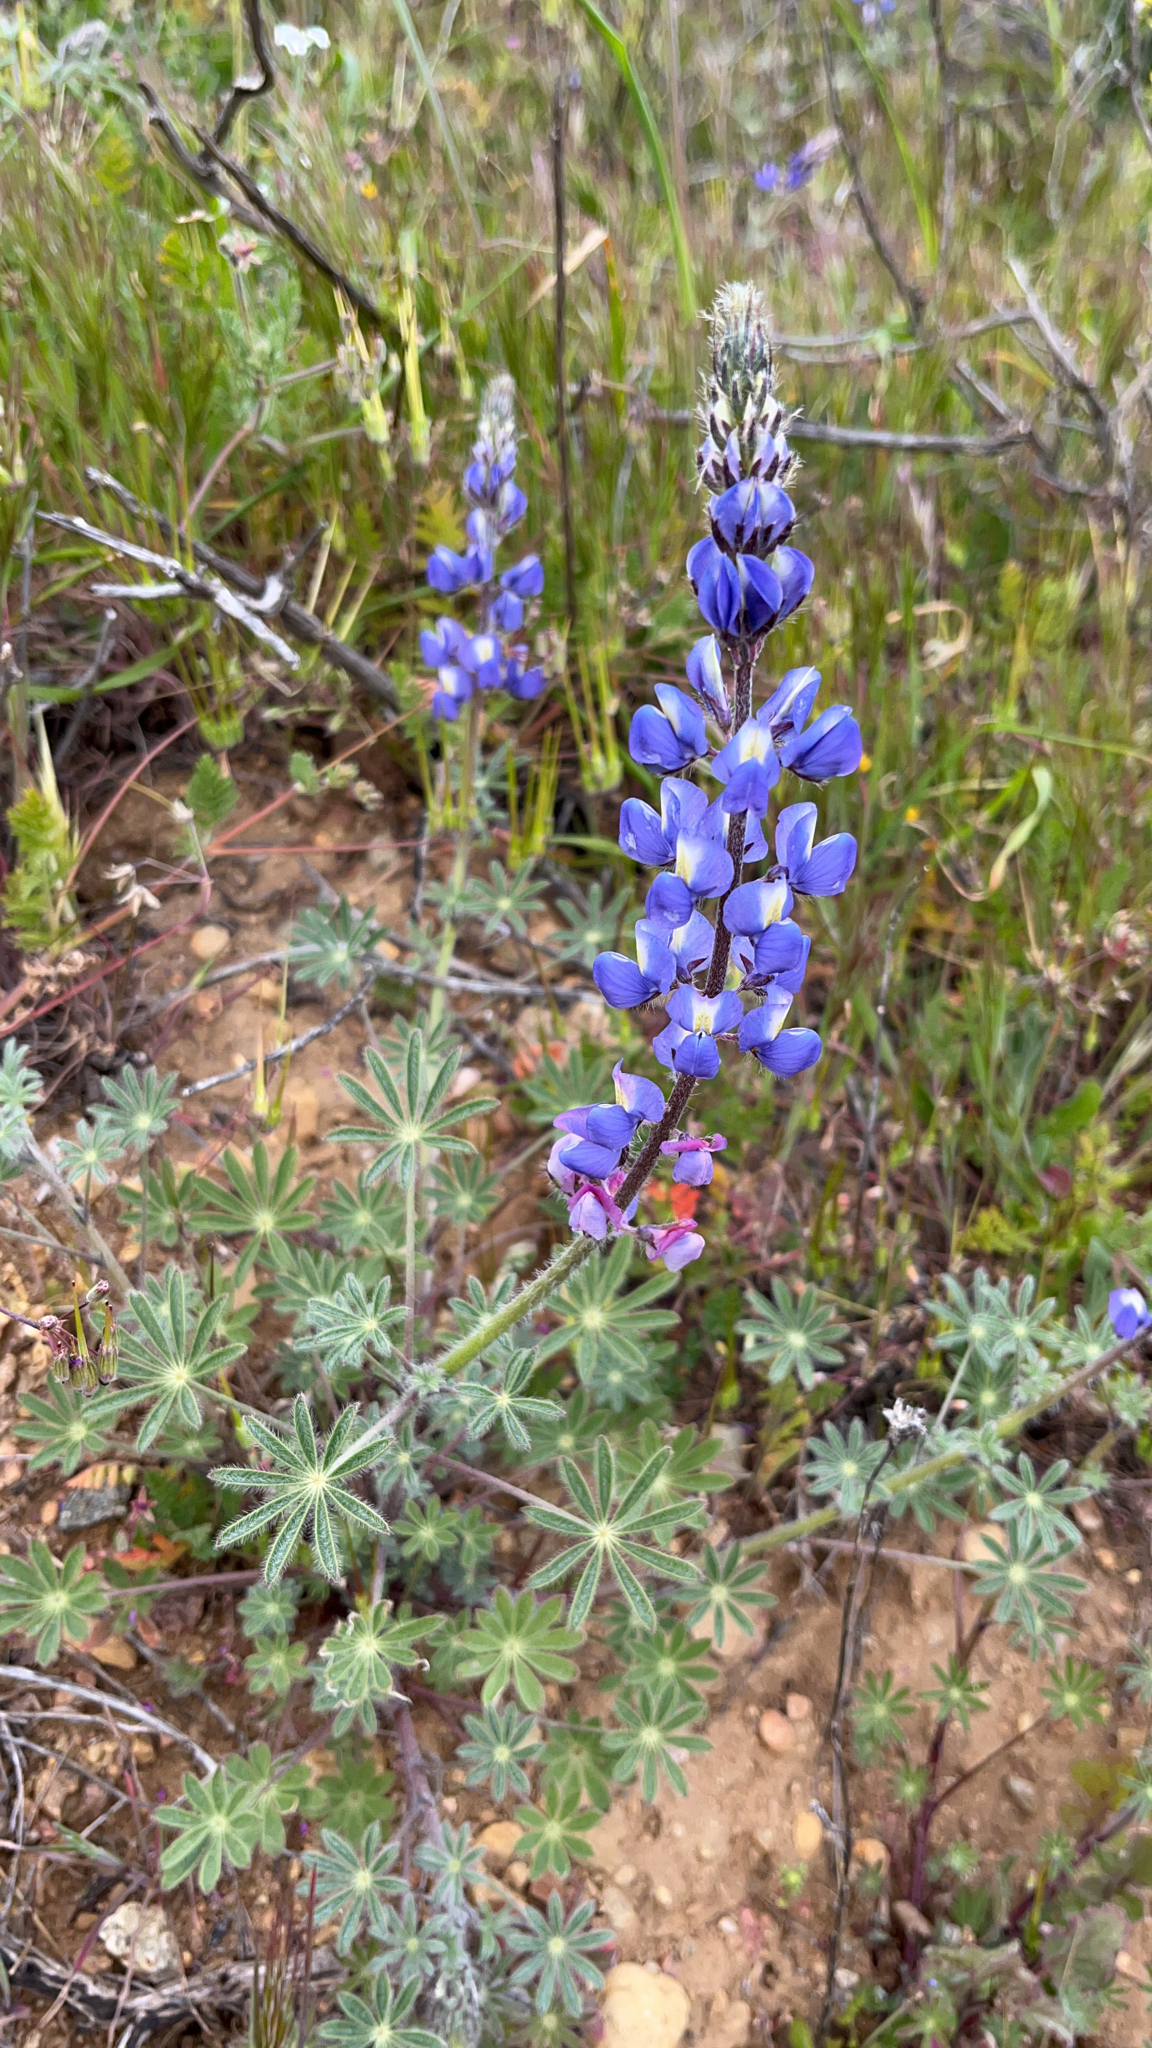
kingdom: Plantae
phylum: Tracheophyta
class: Magnoliopsida
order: Fabales
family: Fabaceae
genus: Lupinus
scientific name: Lupinus sparsiflorus
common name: Coulter's lupine
